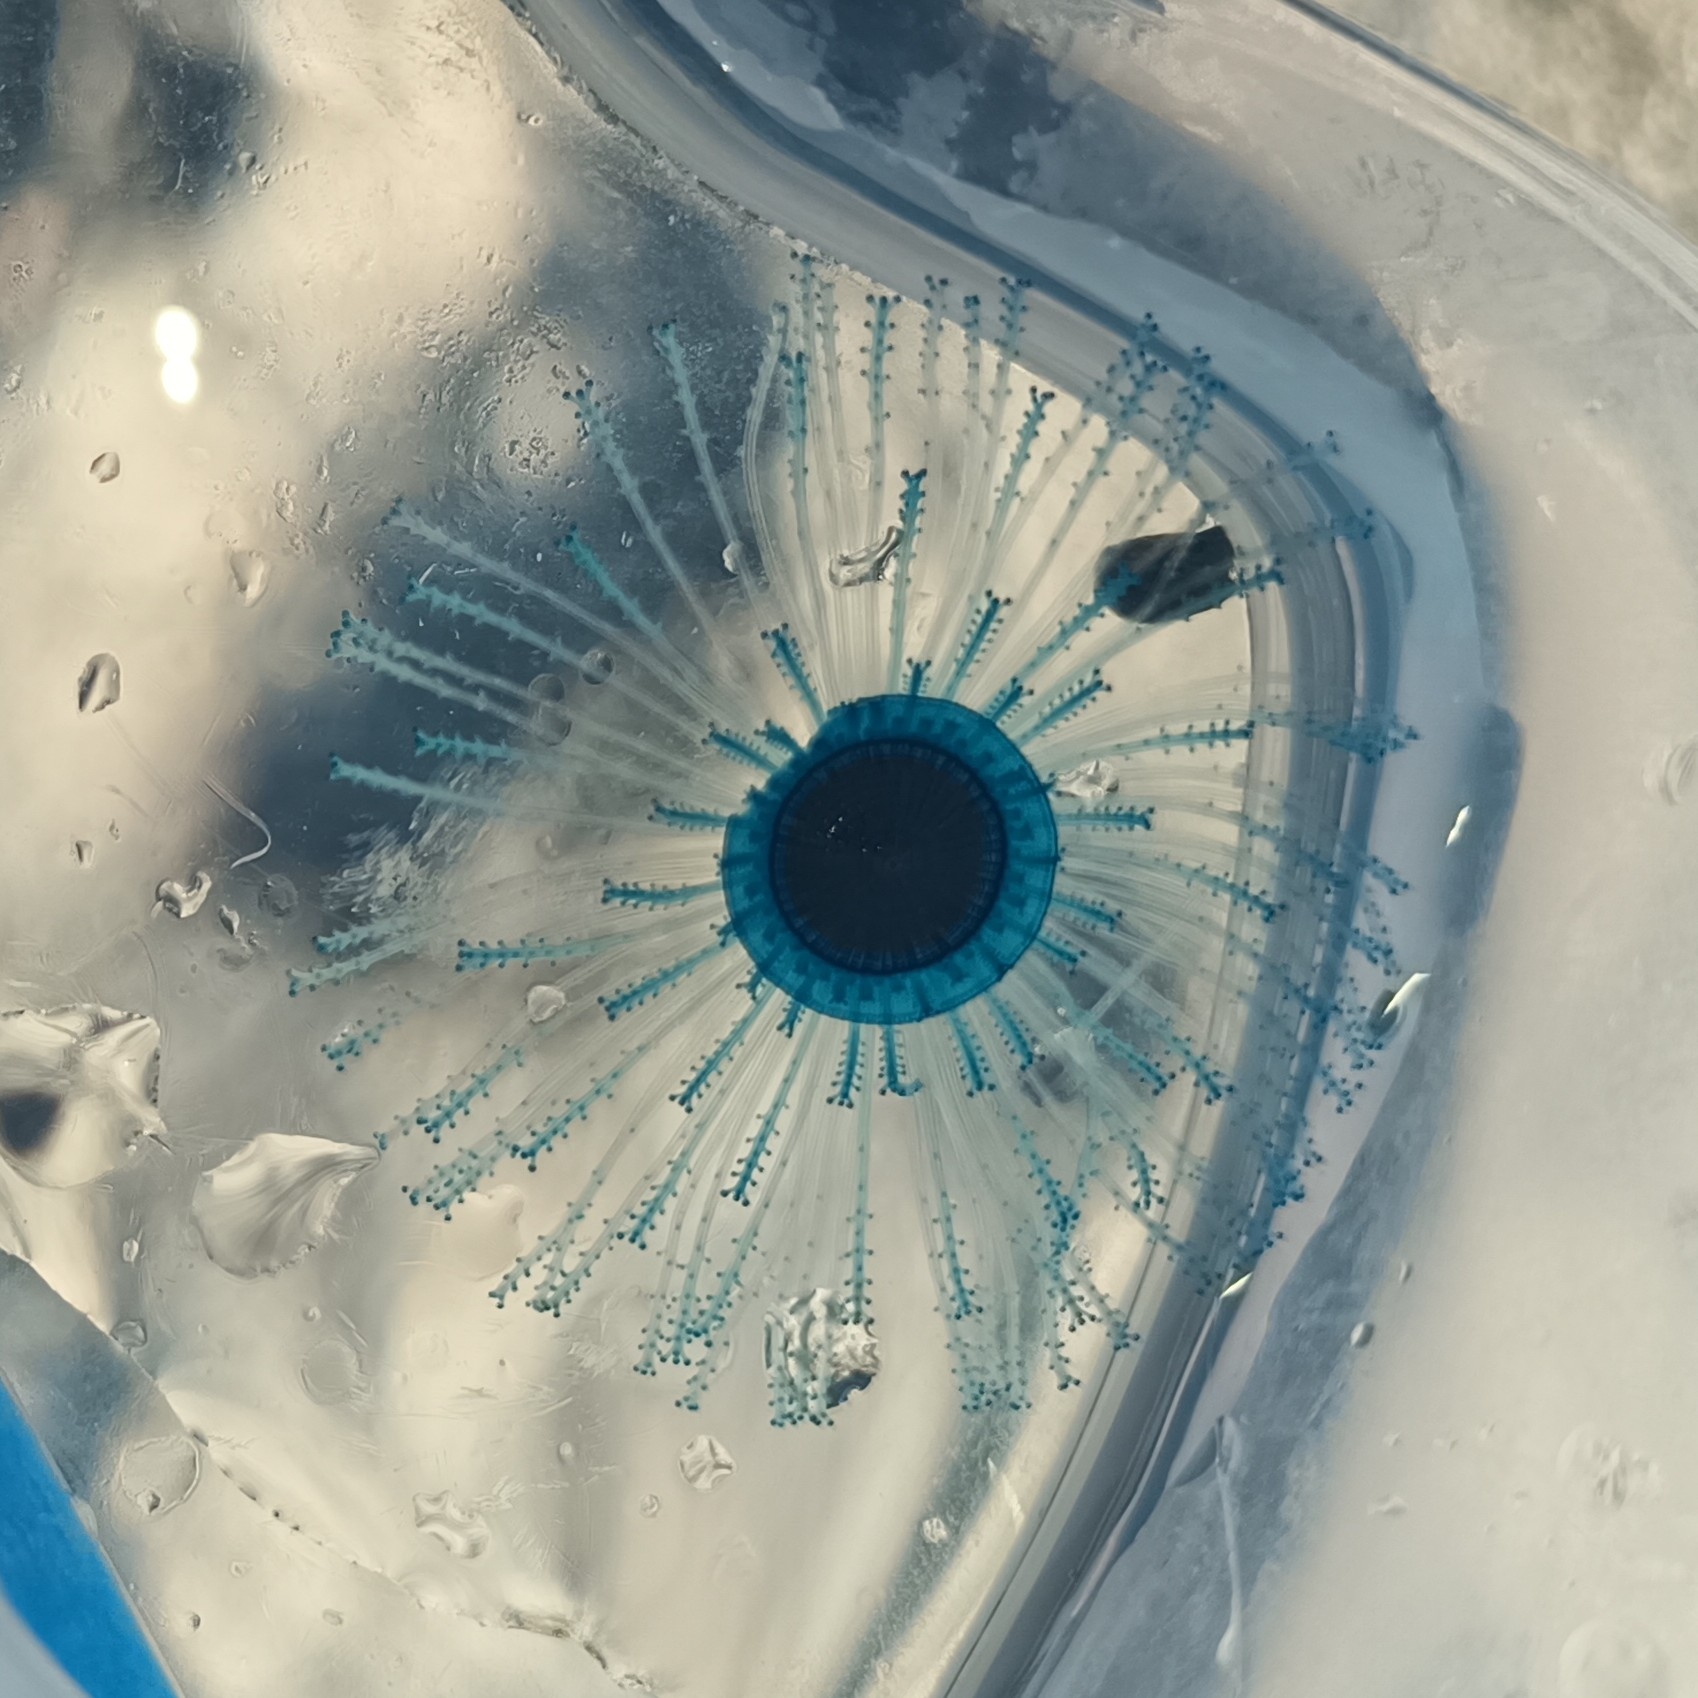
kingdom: Animalia
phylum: Cnidaria
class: Hydrozoa
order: Anthoathecata
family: Porpitidae
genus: Porpita
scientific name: Porpita porpita
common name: Blue button
